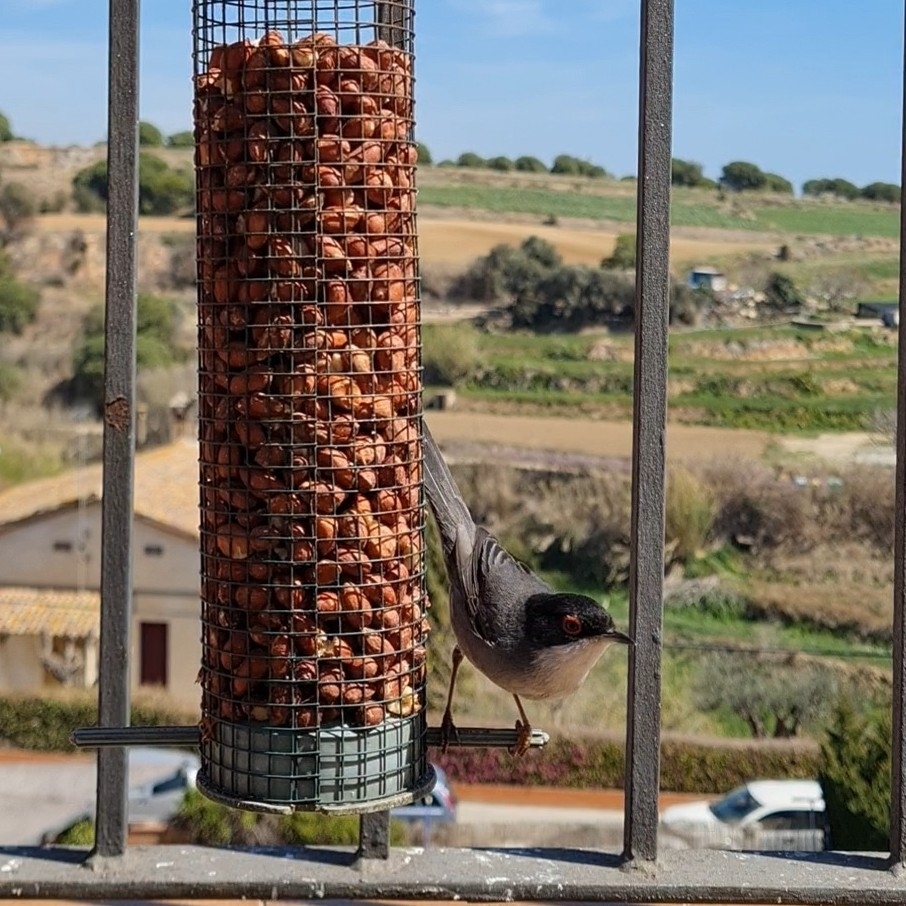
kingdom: Animalia
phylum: Chordata
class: Aves
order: Passeriformes
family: Sylviidae
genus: Curruca
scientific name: Curruca melanocephala
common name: Sardinian warbler
